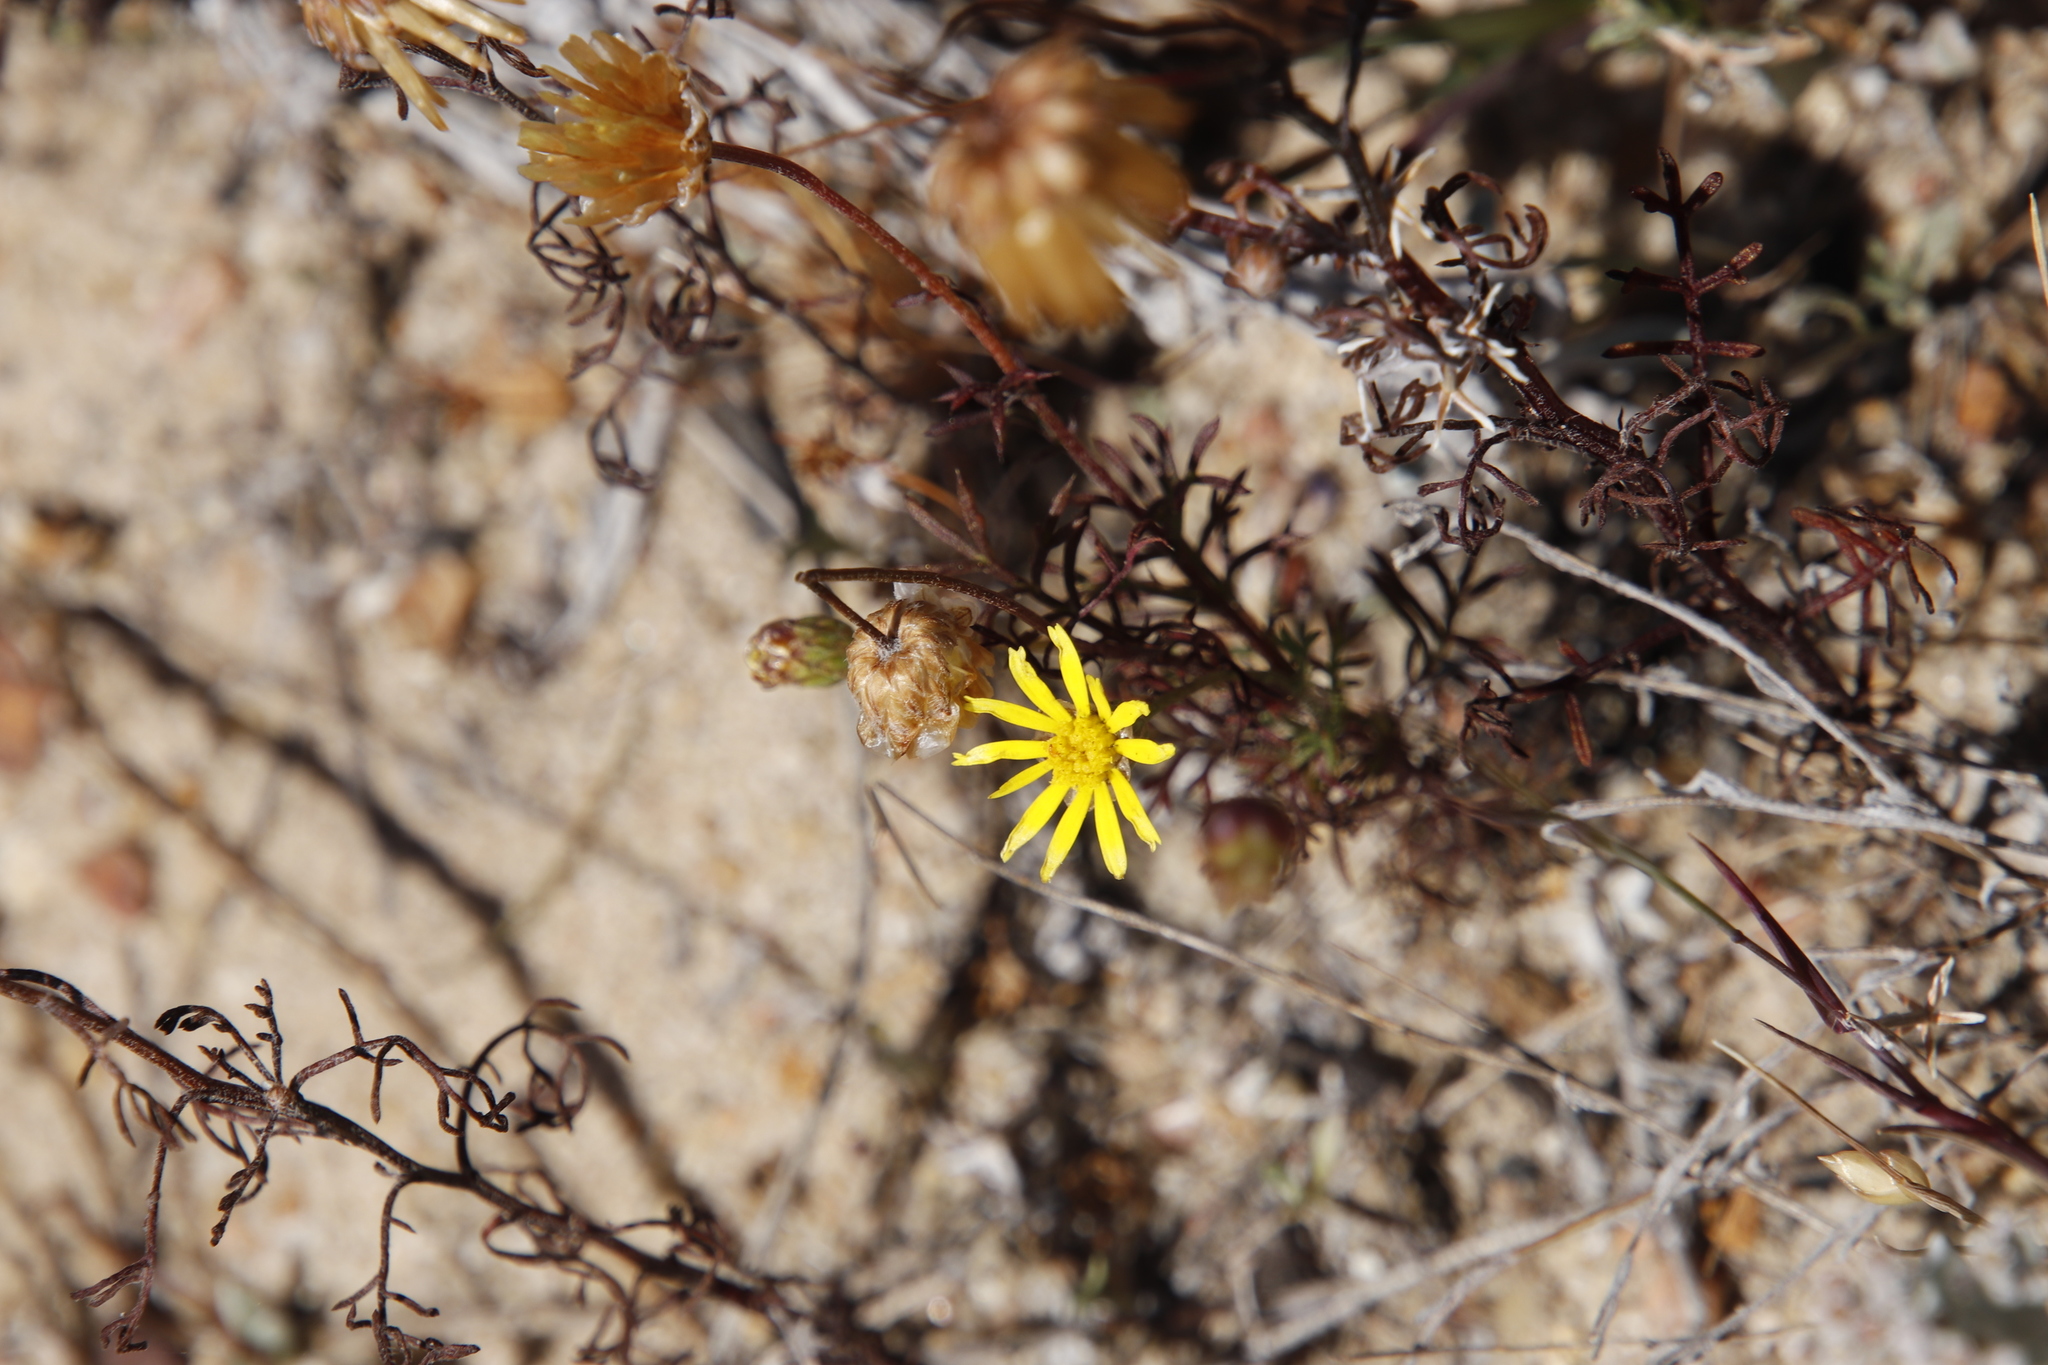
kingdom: Plantae
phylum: Tracheophyta
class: Magnoliopsida
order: Asterales
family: Asteraceae
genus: Ursinia
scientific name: Ursinia anthemoides
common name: Ursinia
